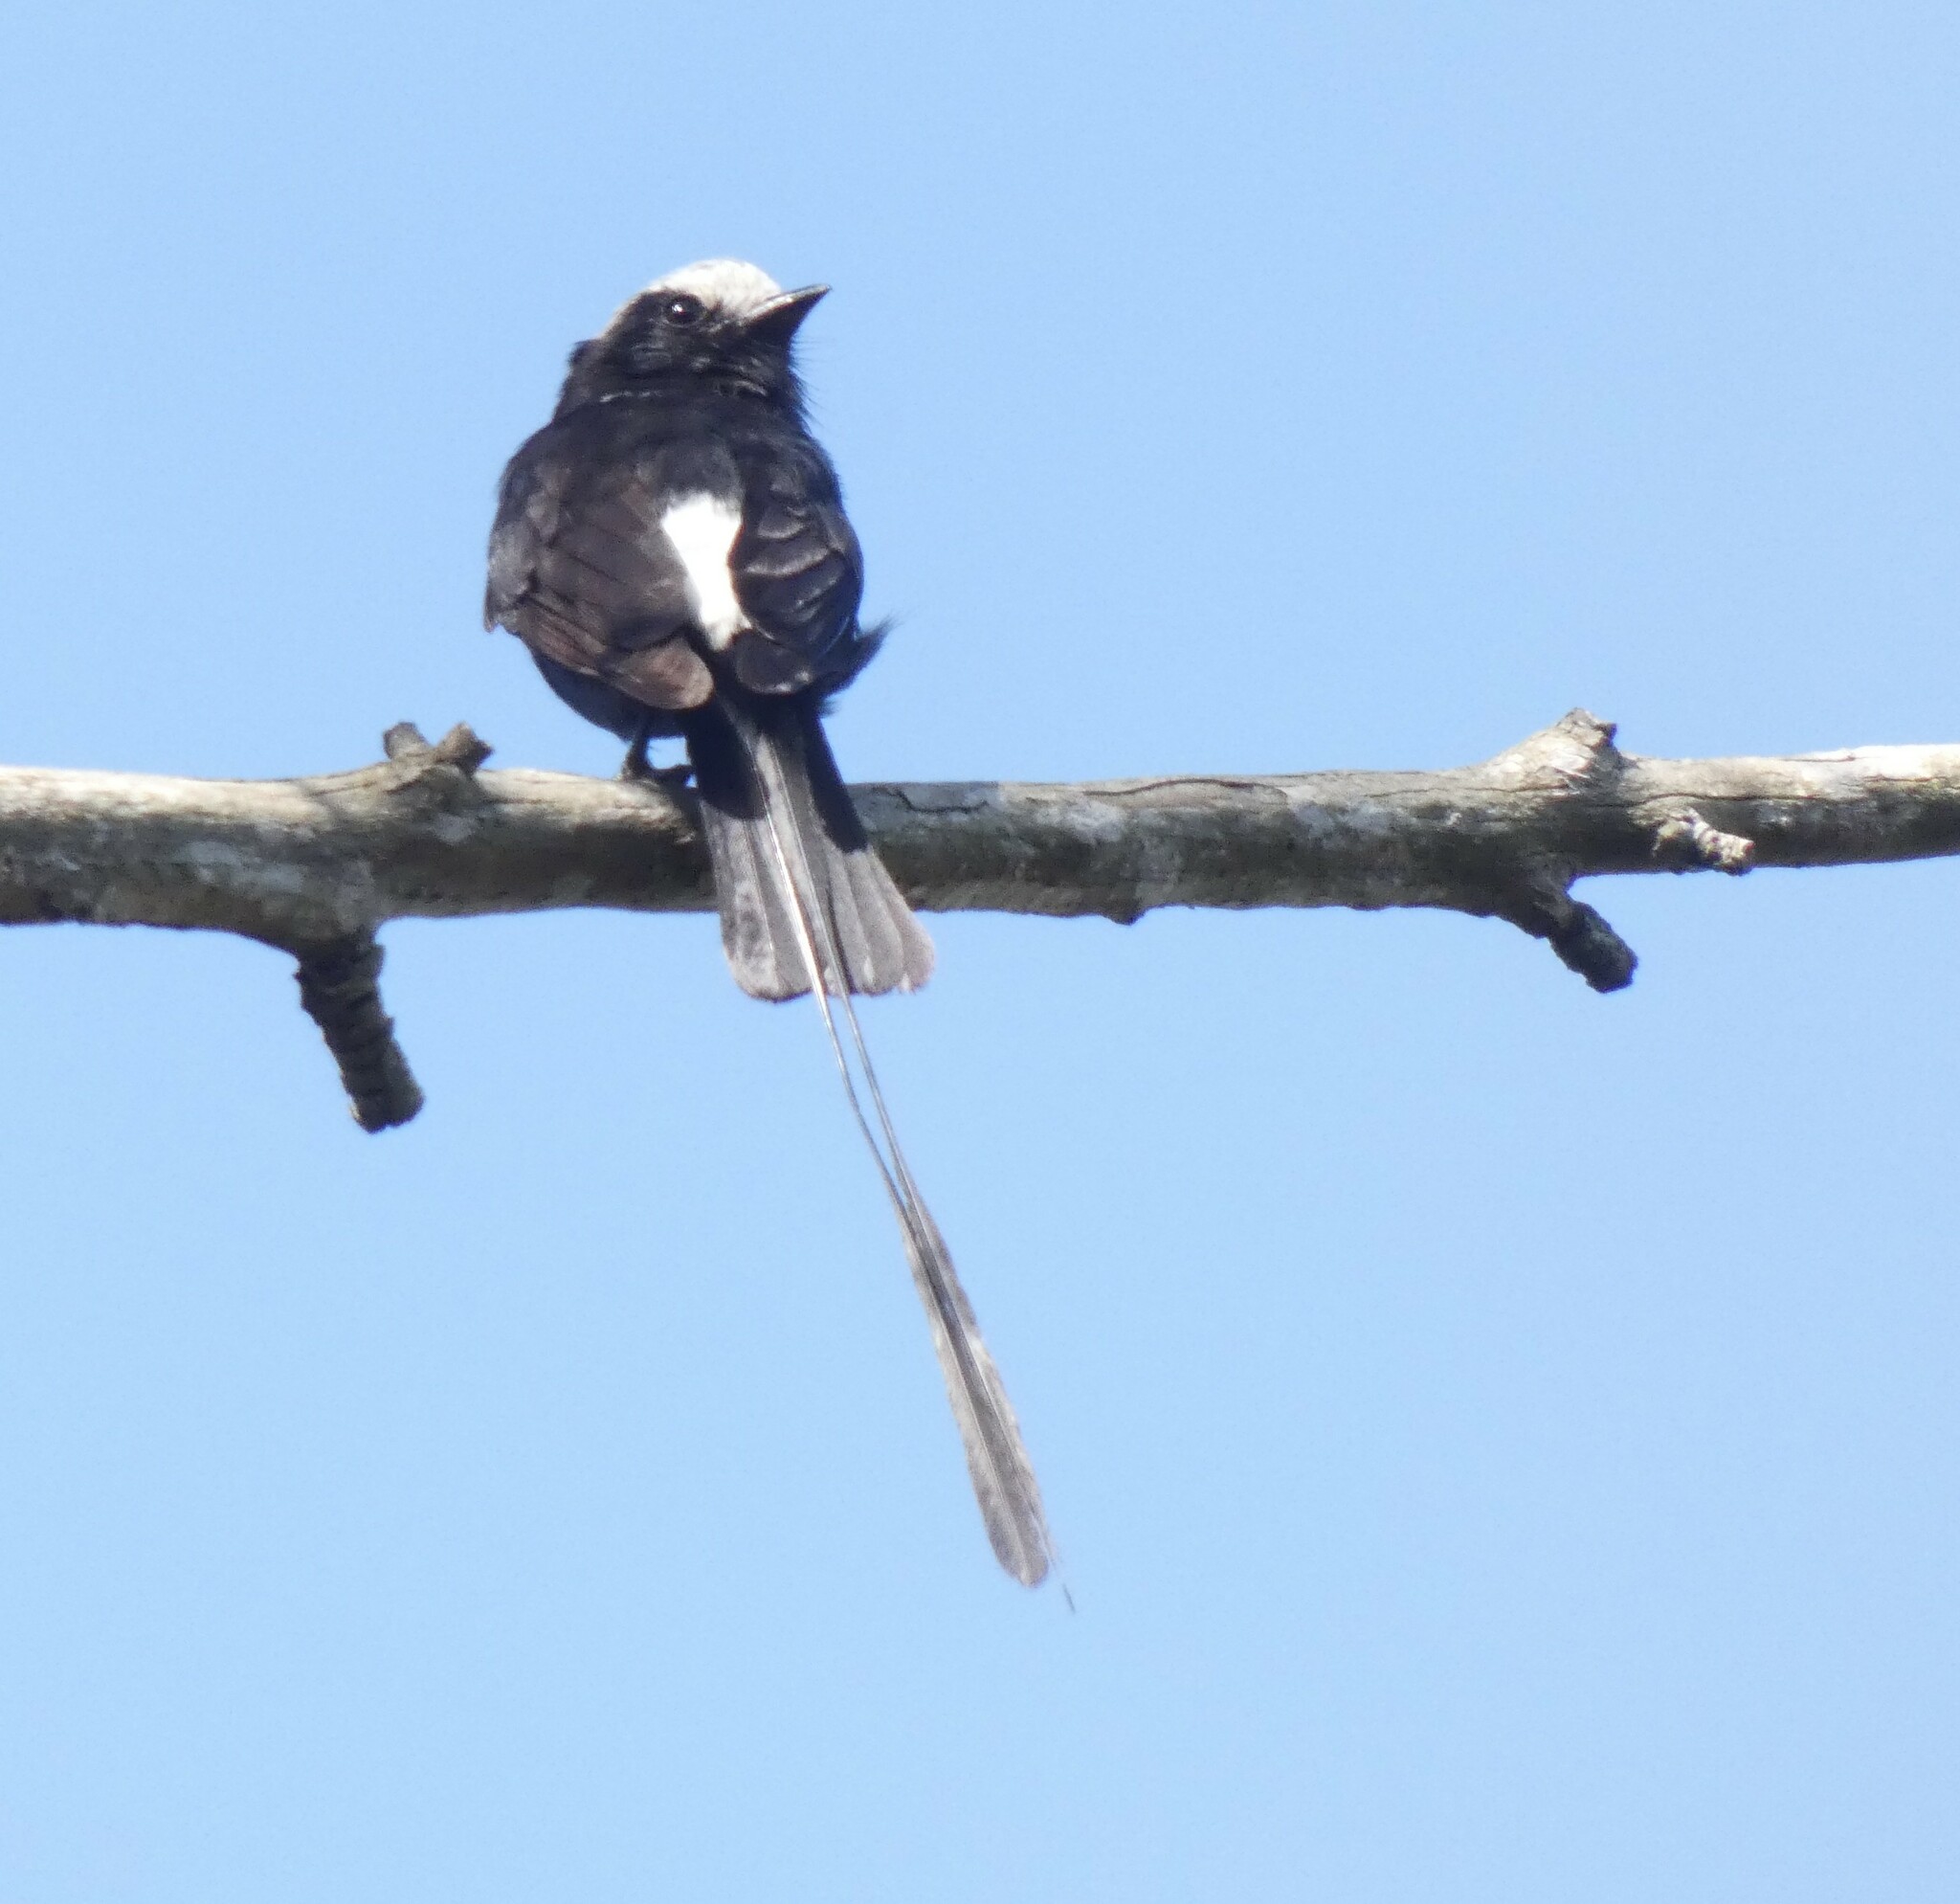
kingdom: Animalia
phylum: Chordata
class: Aves
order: Passeriformes
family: Tyrannidae
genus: Colonia
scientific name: Colonia colonus
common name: Long-tailed tyrant
